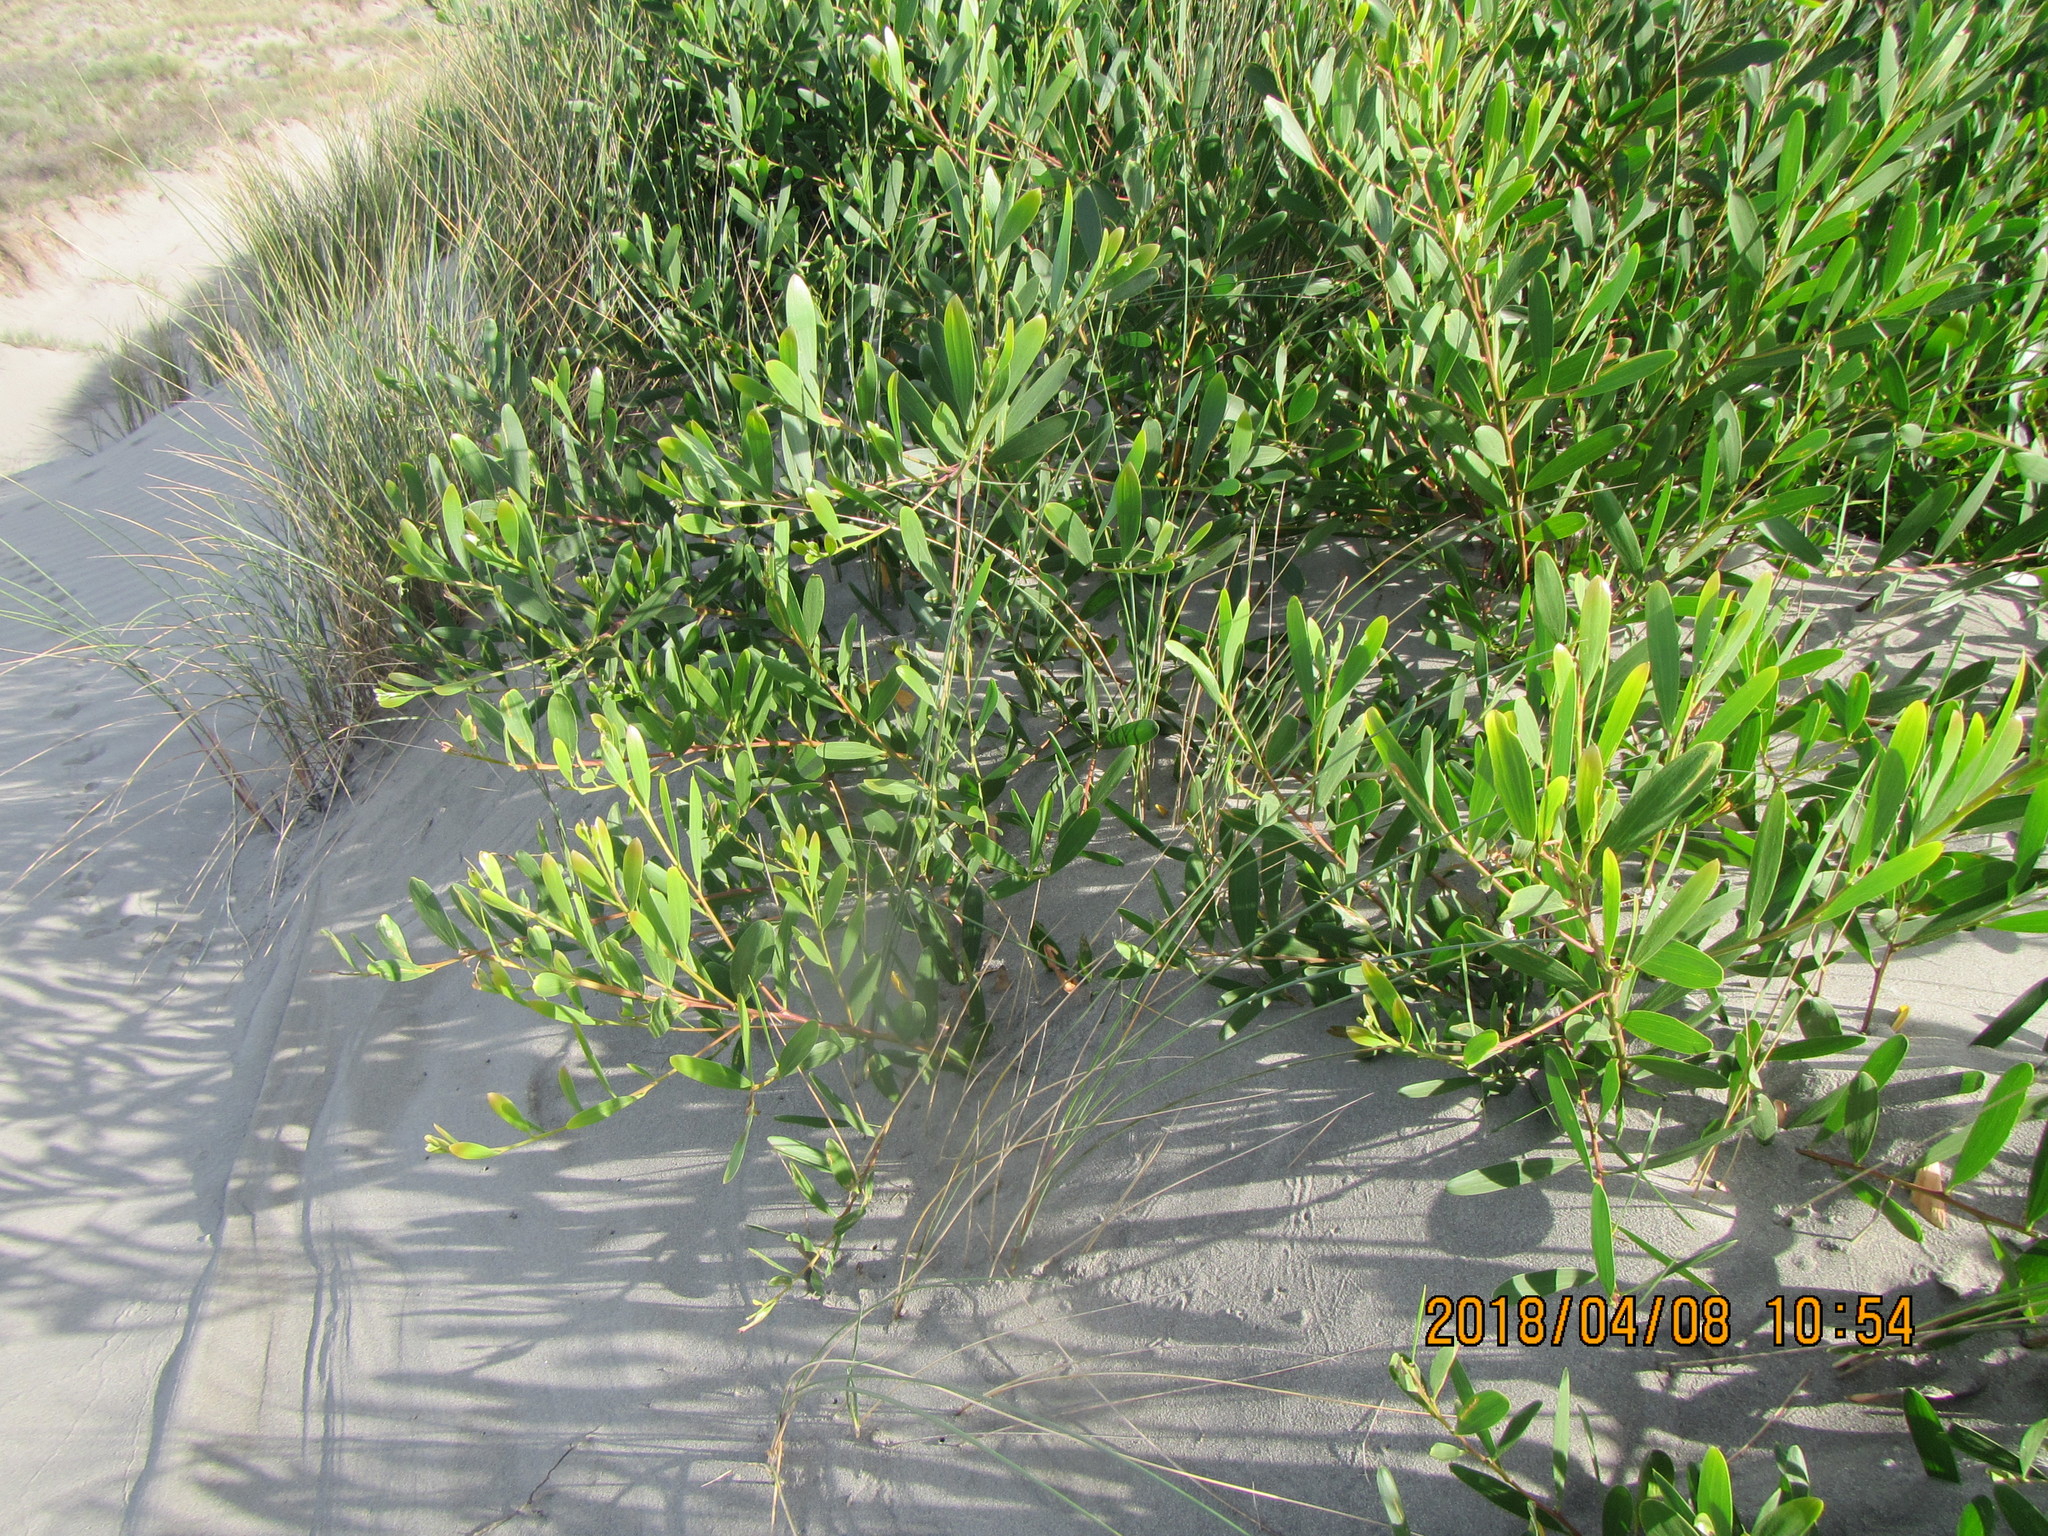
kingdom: Plantae
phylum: Tracheophyta
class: Magnoliopsida
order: Fabales
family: Fabaceae
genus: Acacia
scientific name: Acacia longifolia
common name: Sydney golden wattle
